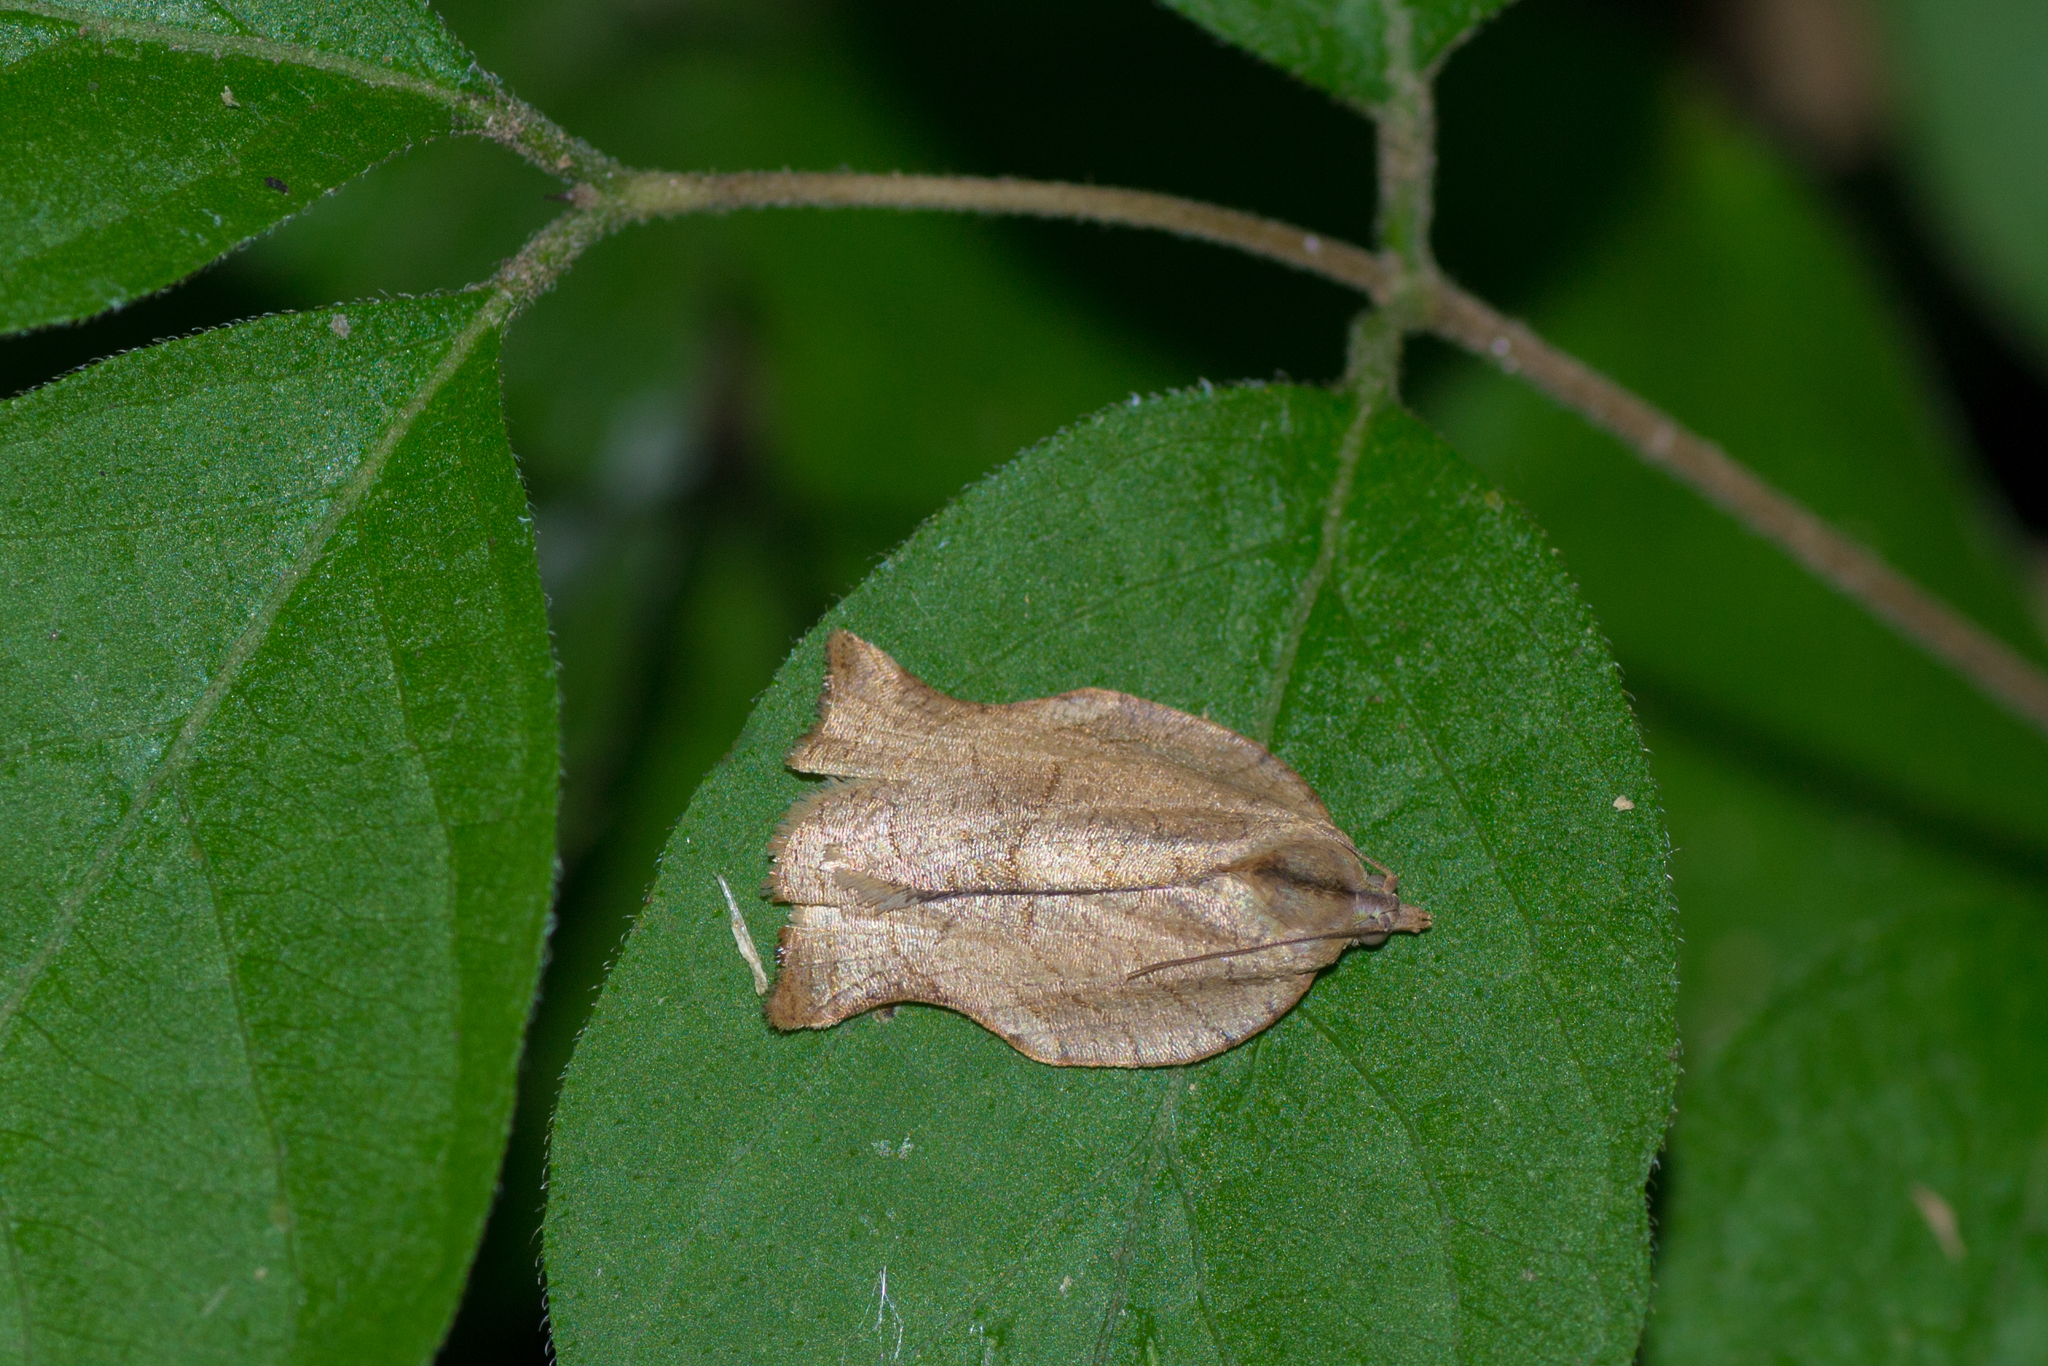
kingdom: Animalia
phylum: Arthropoda
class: Insecta
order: Lepidoptera
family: Tortricidae
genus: Archips
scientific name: Archips purpurana
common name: Omnivorous leafroller
